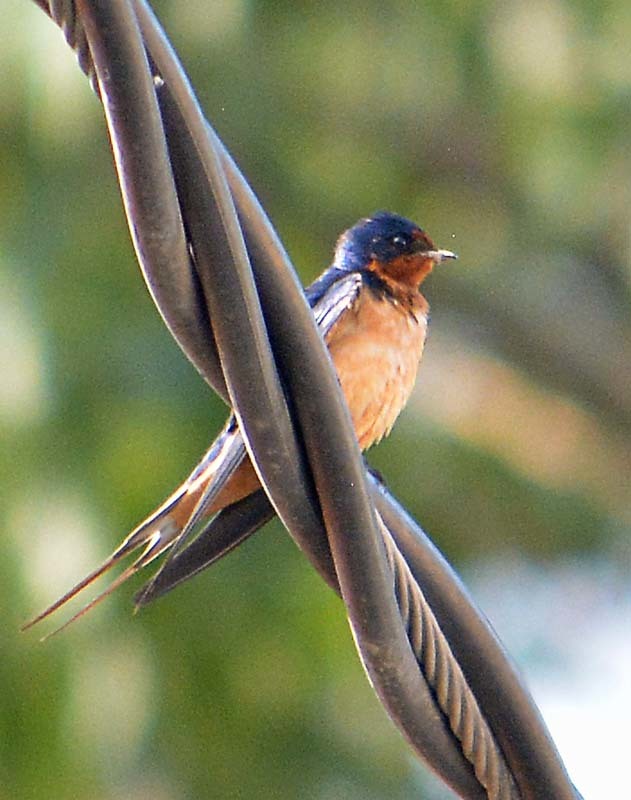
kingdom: Animalia
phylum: Chordata
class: Aves
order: Passeriformes
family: Hirundinidae
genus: Hirundo
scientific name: Hirundo rustica
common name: Barn swallow
